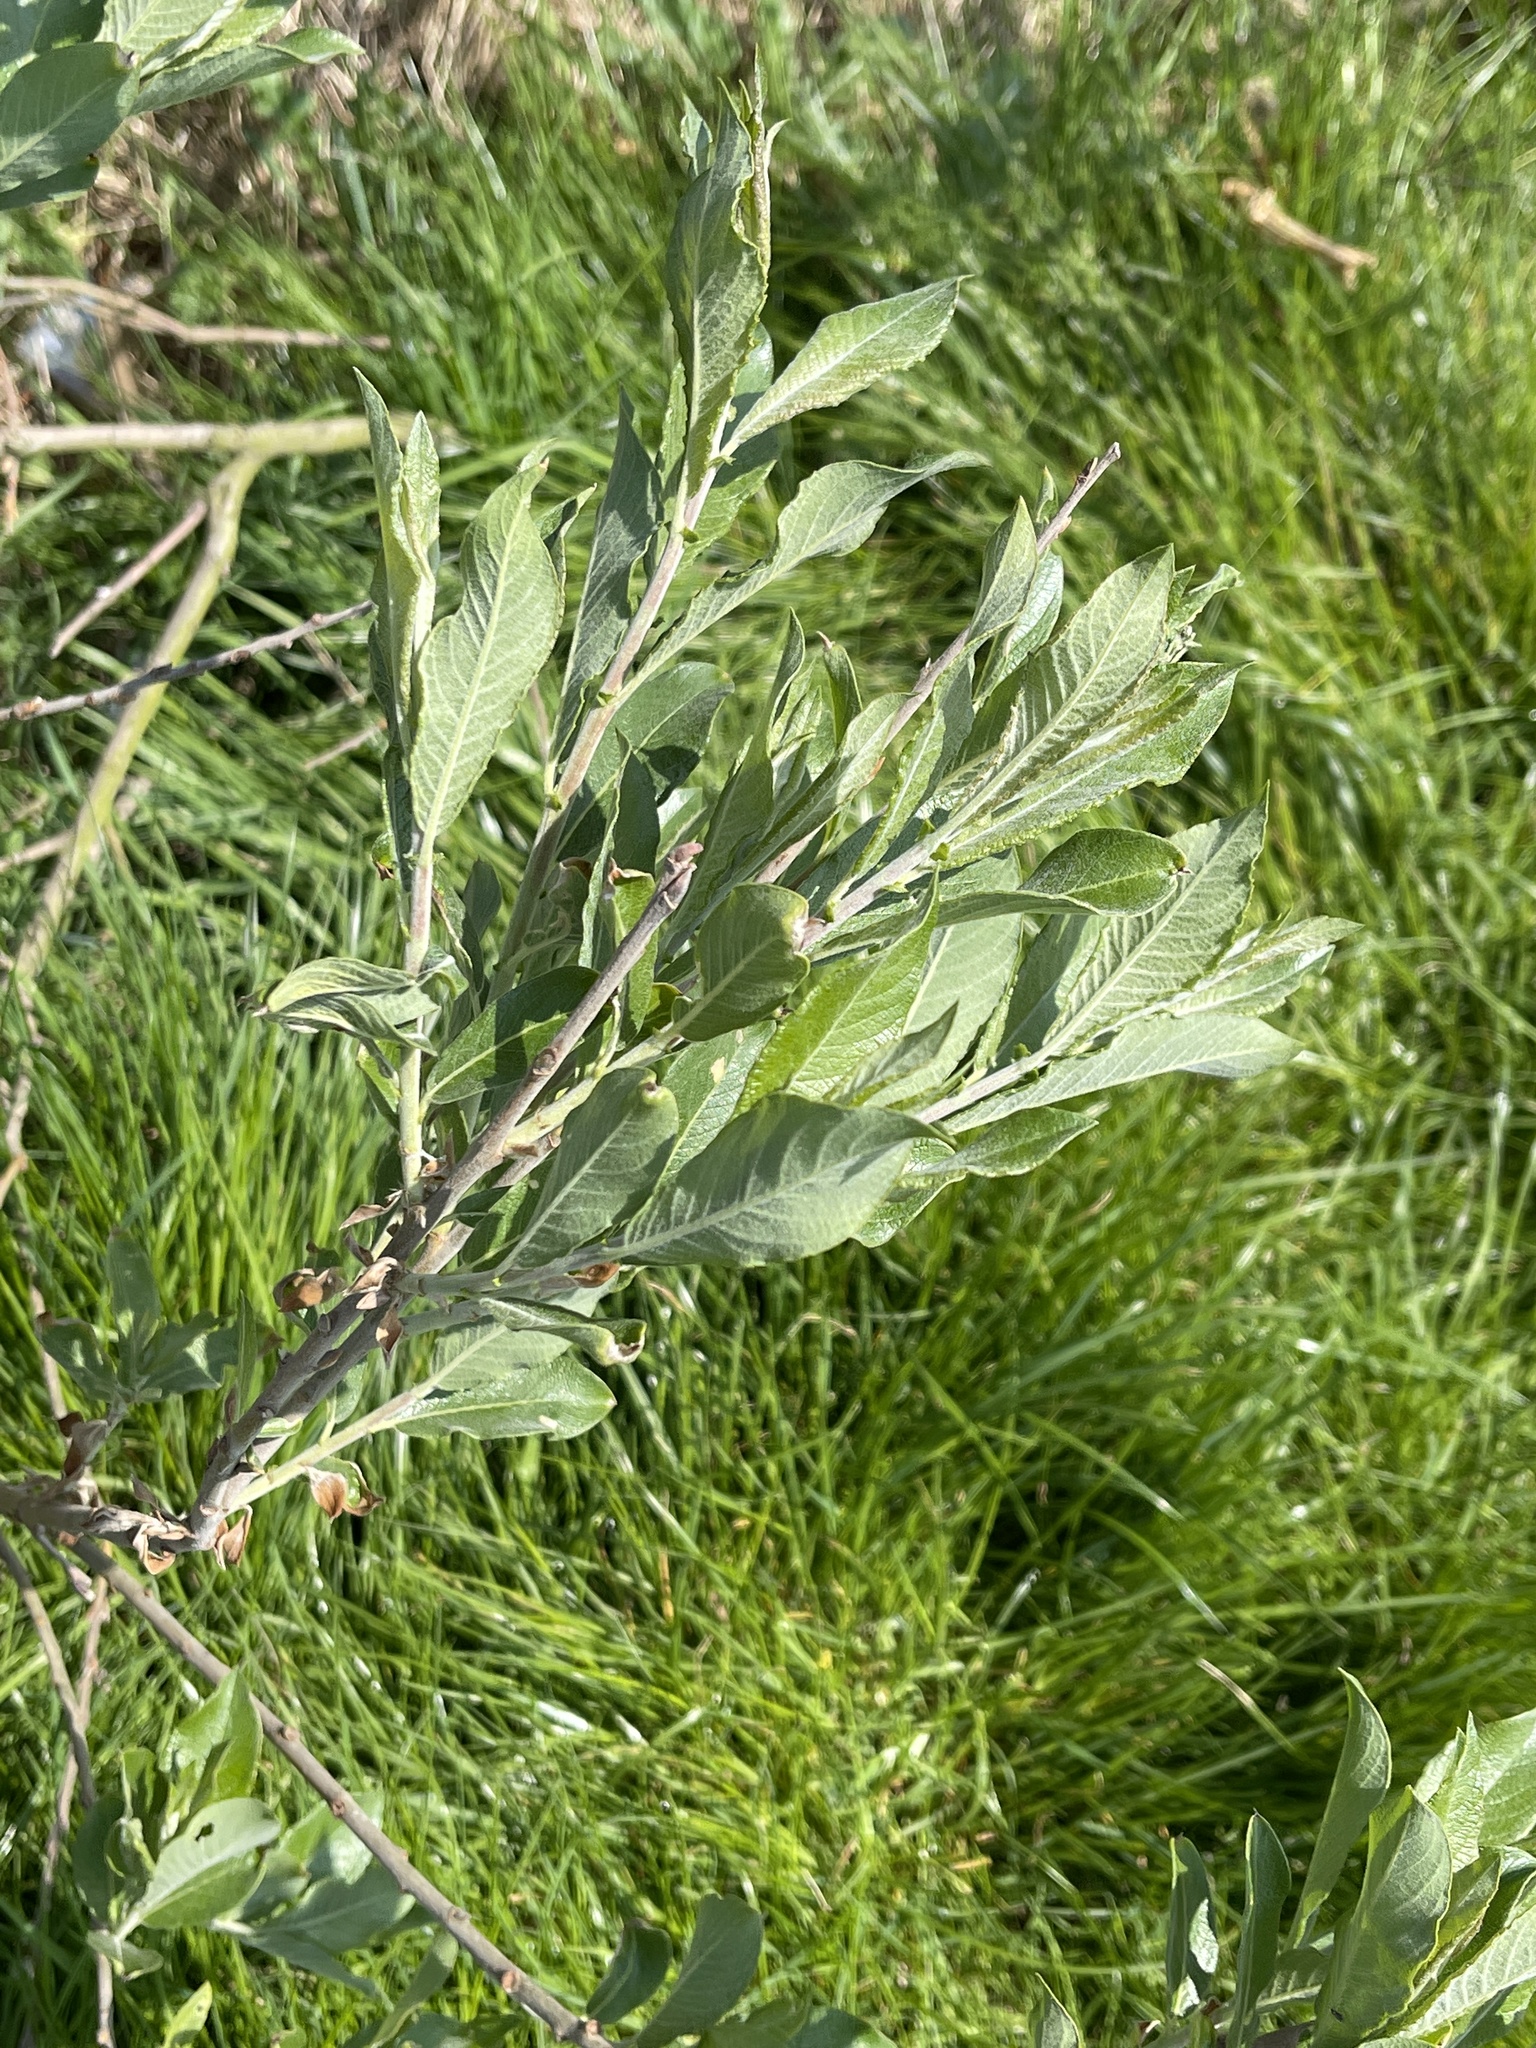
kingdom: Plantae
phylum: Tracheophyta
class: Magnoliopsida
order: Malpighiales
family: Salicaceae
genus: Salix
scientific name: Salix cinerea
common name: Common sallow
